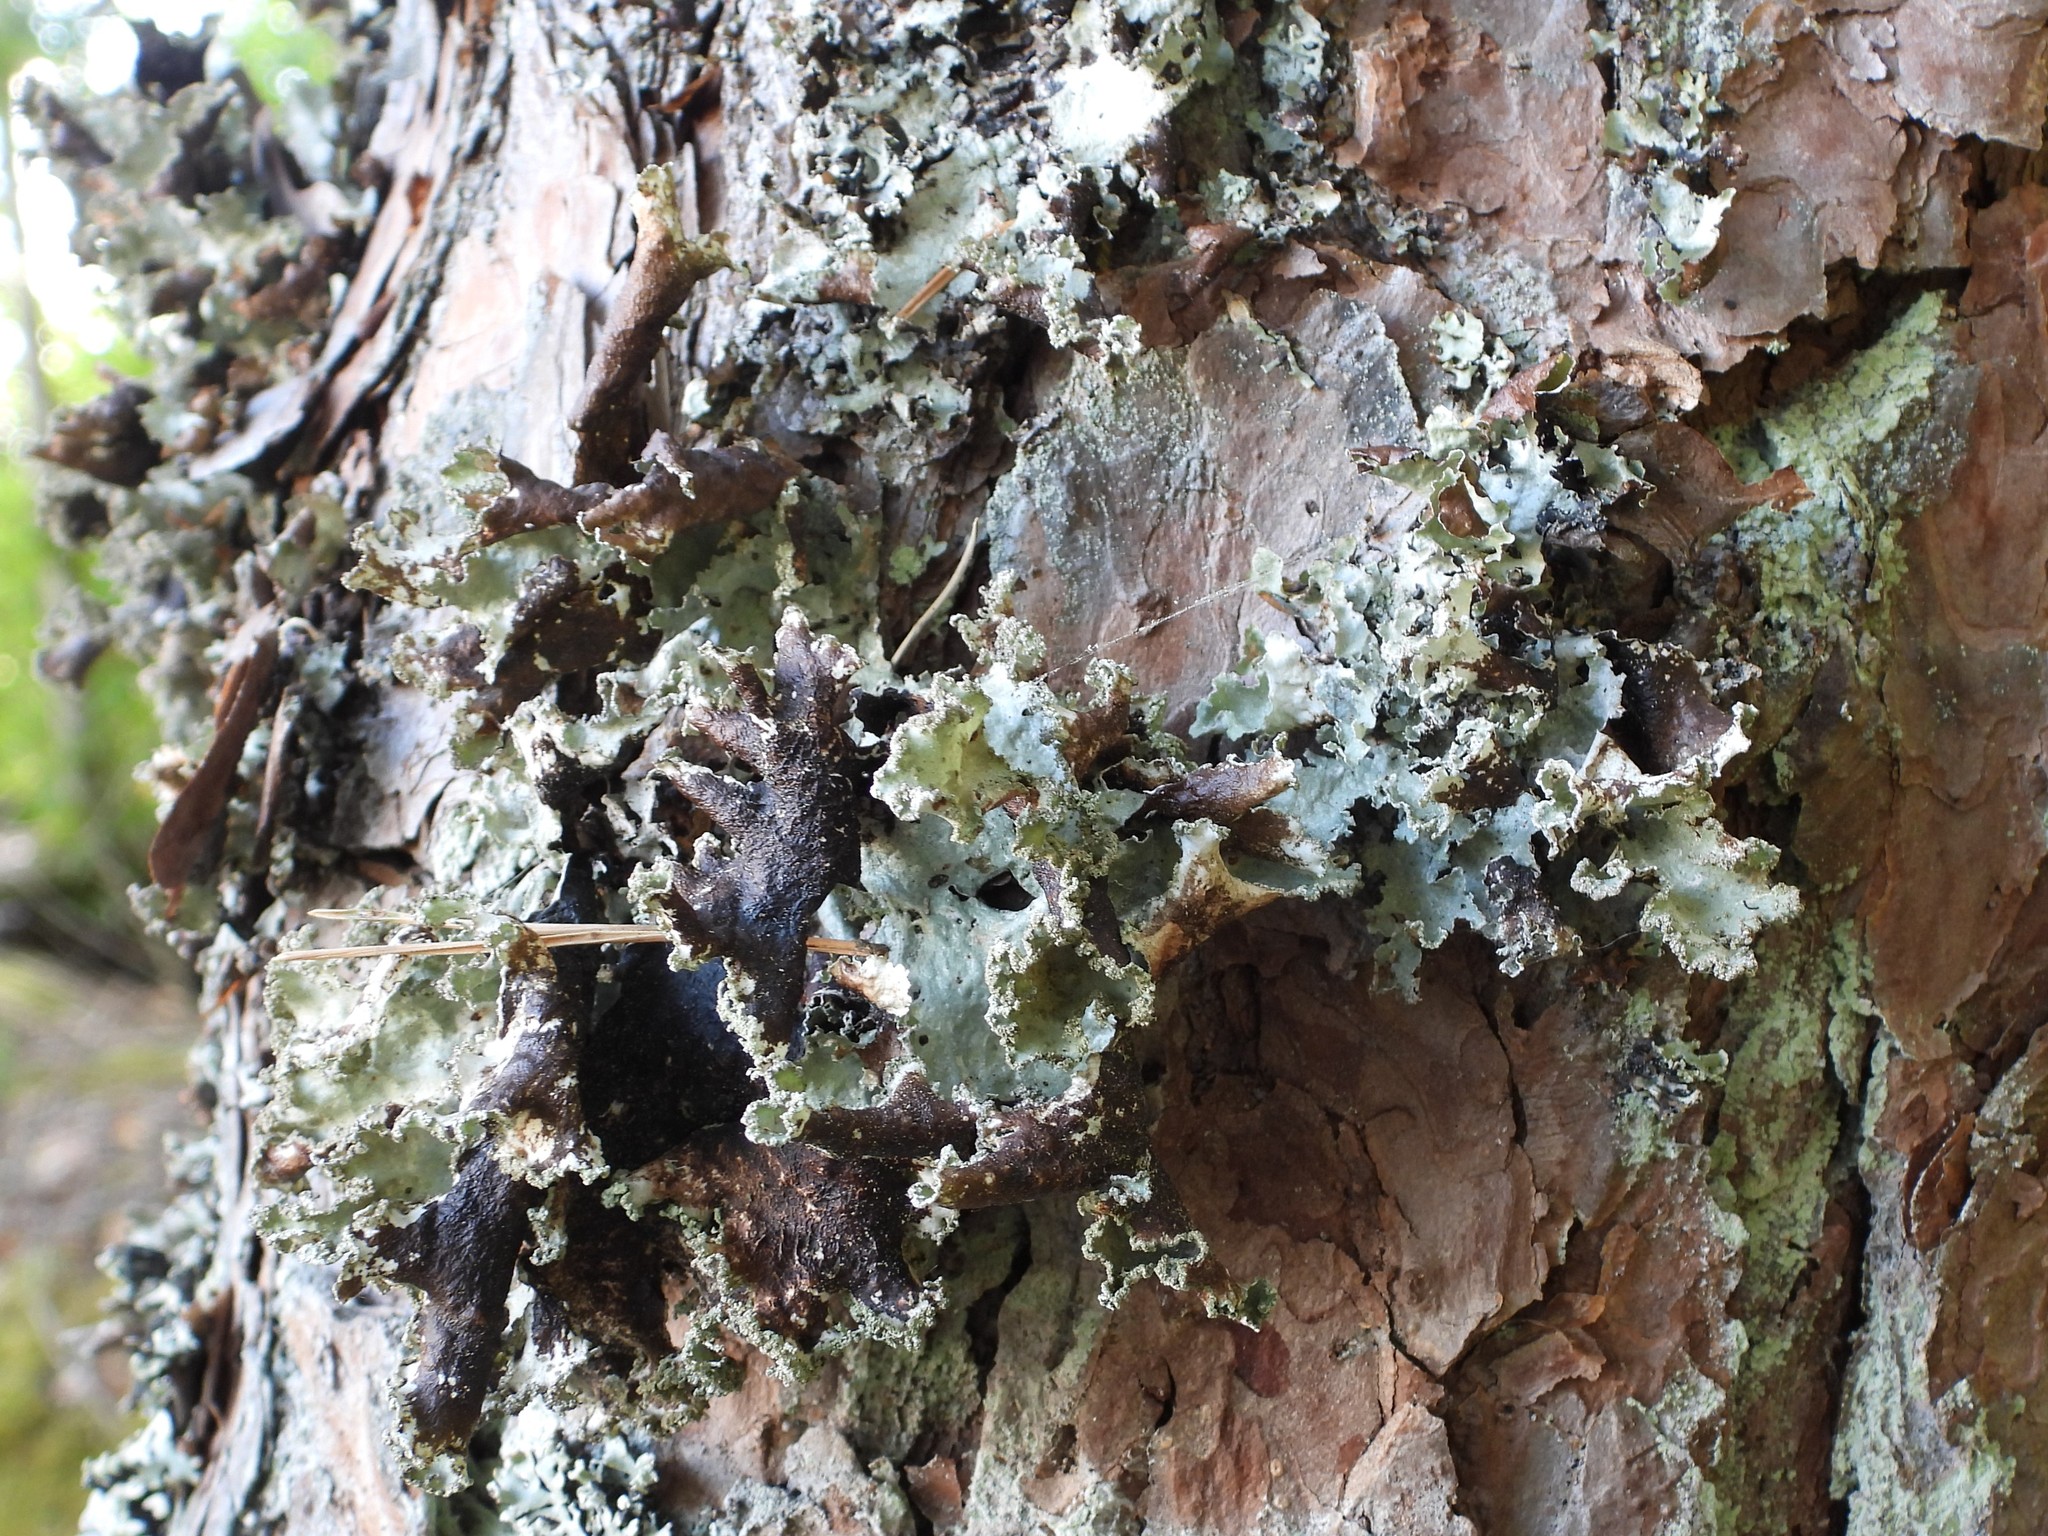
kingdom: Fungi
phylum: Ascomycota
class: Lecanoromycetes
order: Lecanorales
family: Parmeliaceae
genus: Platismatia
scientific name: Platismatia glauca
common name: Varied rag lichen
